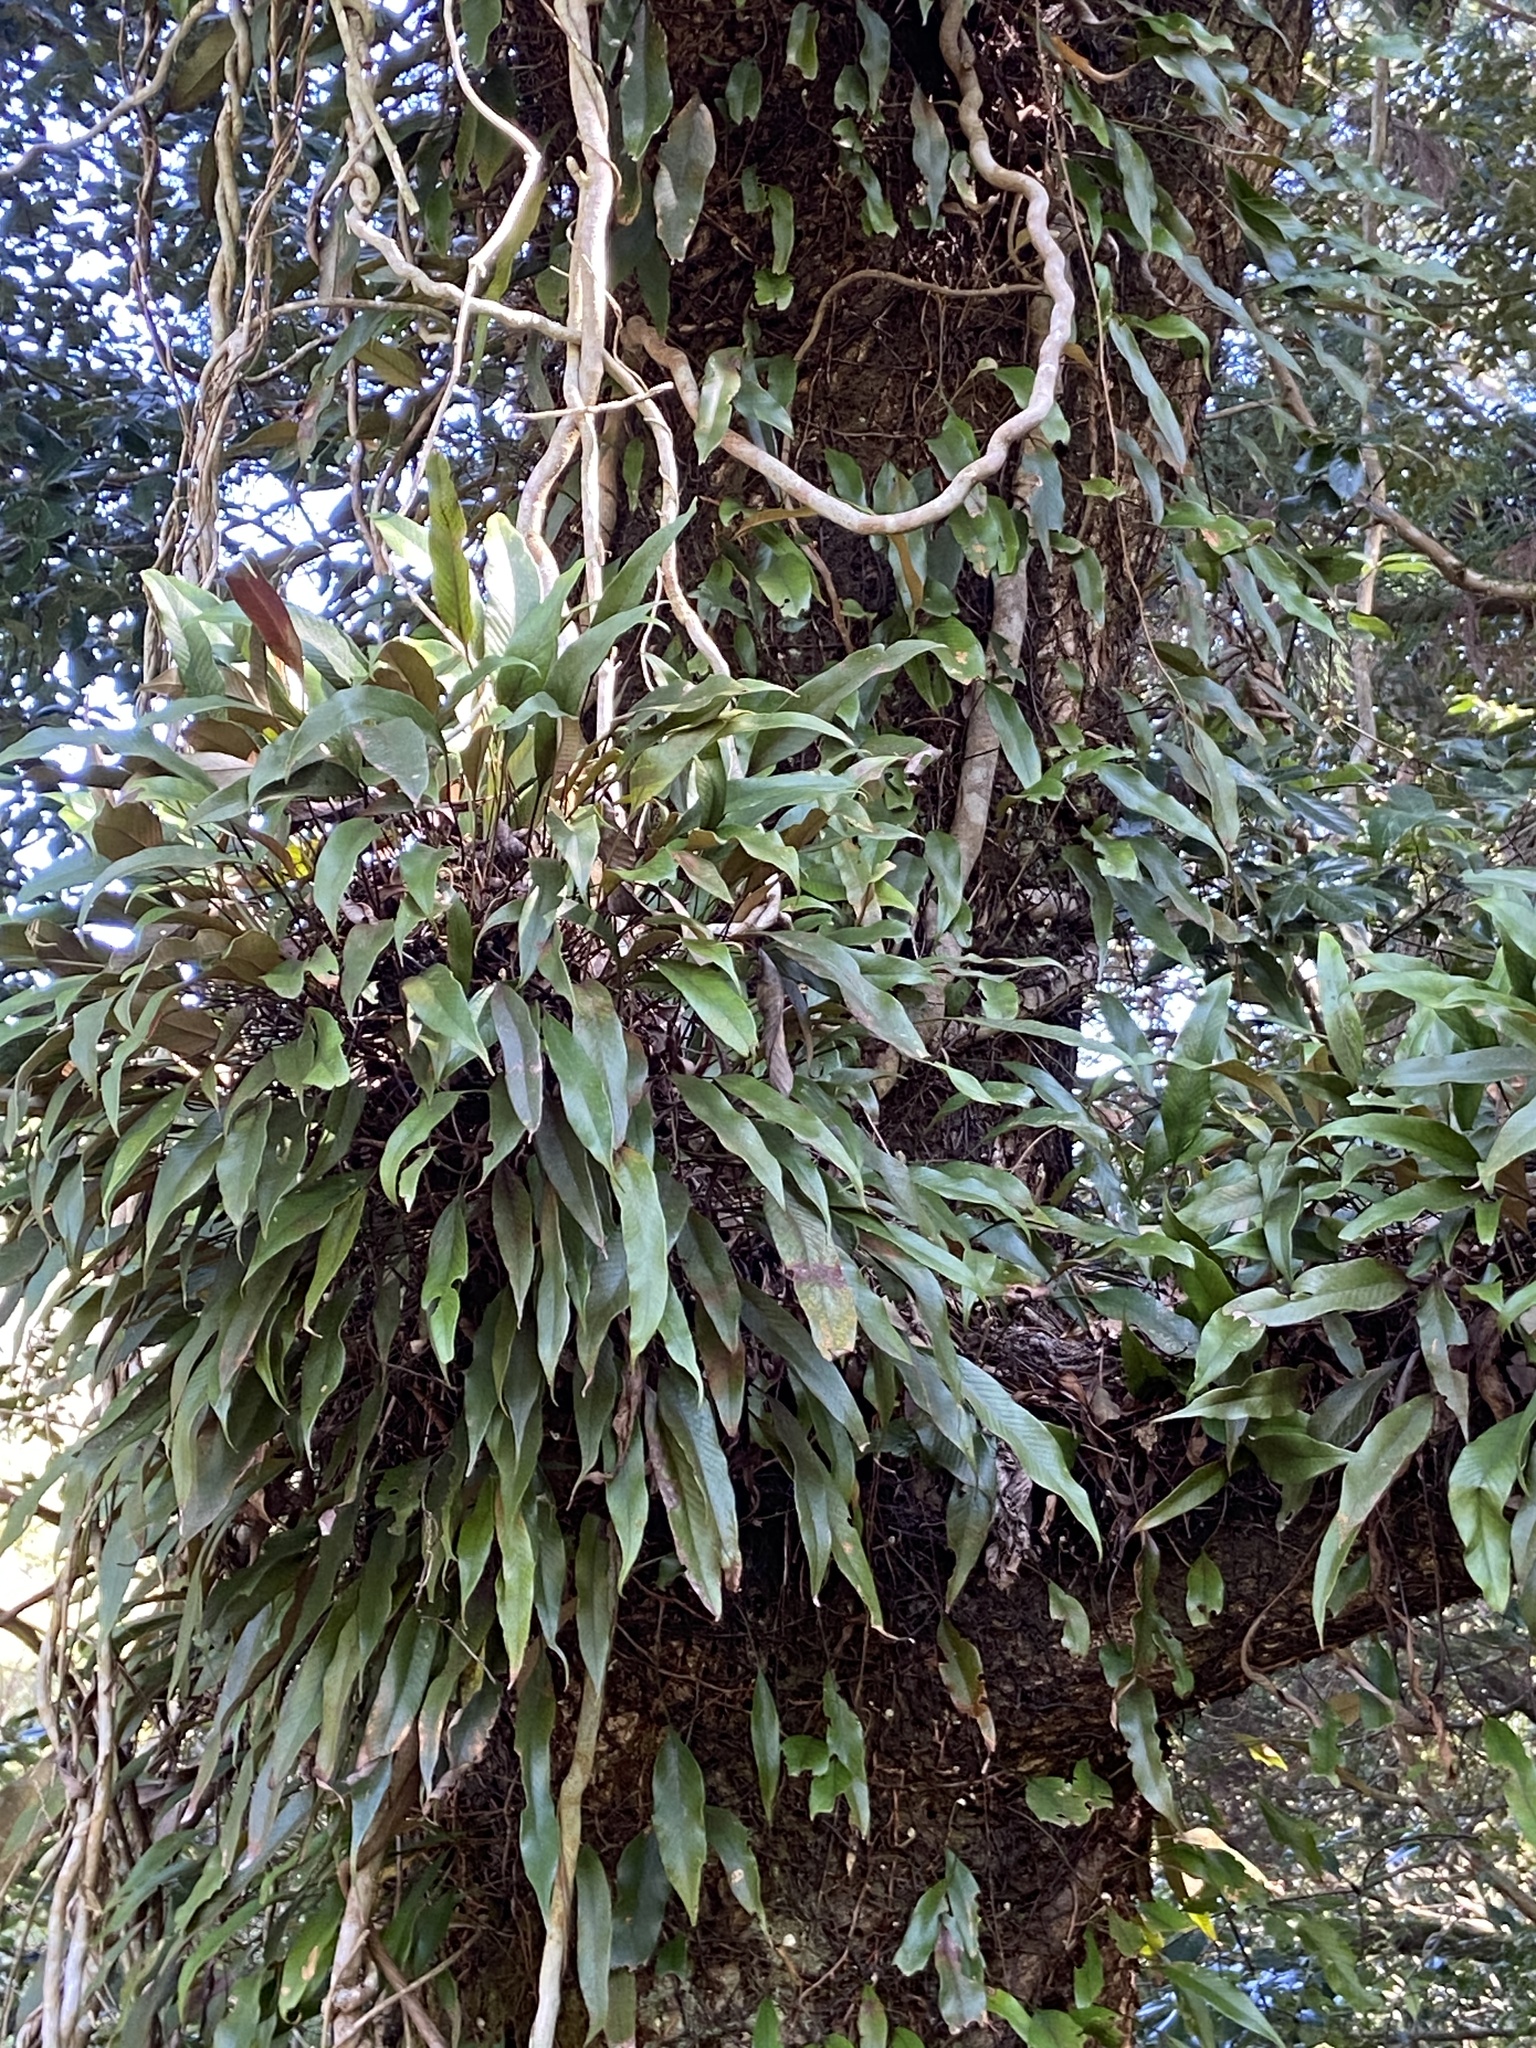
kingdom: Plantae
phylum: Tracheophyta
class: Polypodiopsida
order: Polypodiales
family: Polypodiaceae
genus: Pyrrosia
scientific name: Pyrrosia lingua
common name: Felt fern
